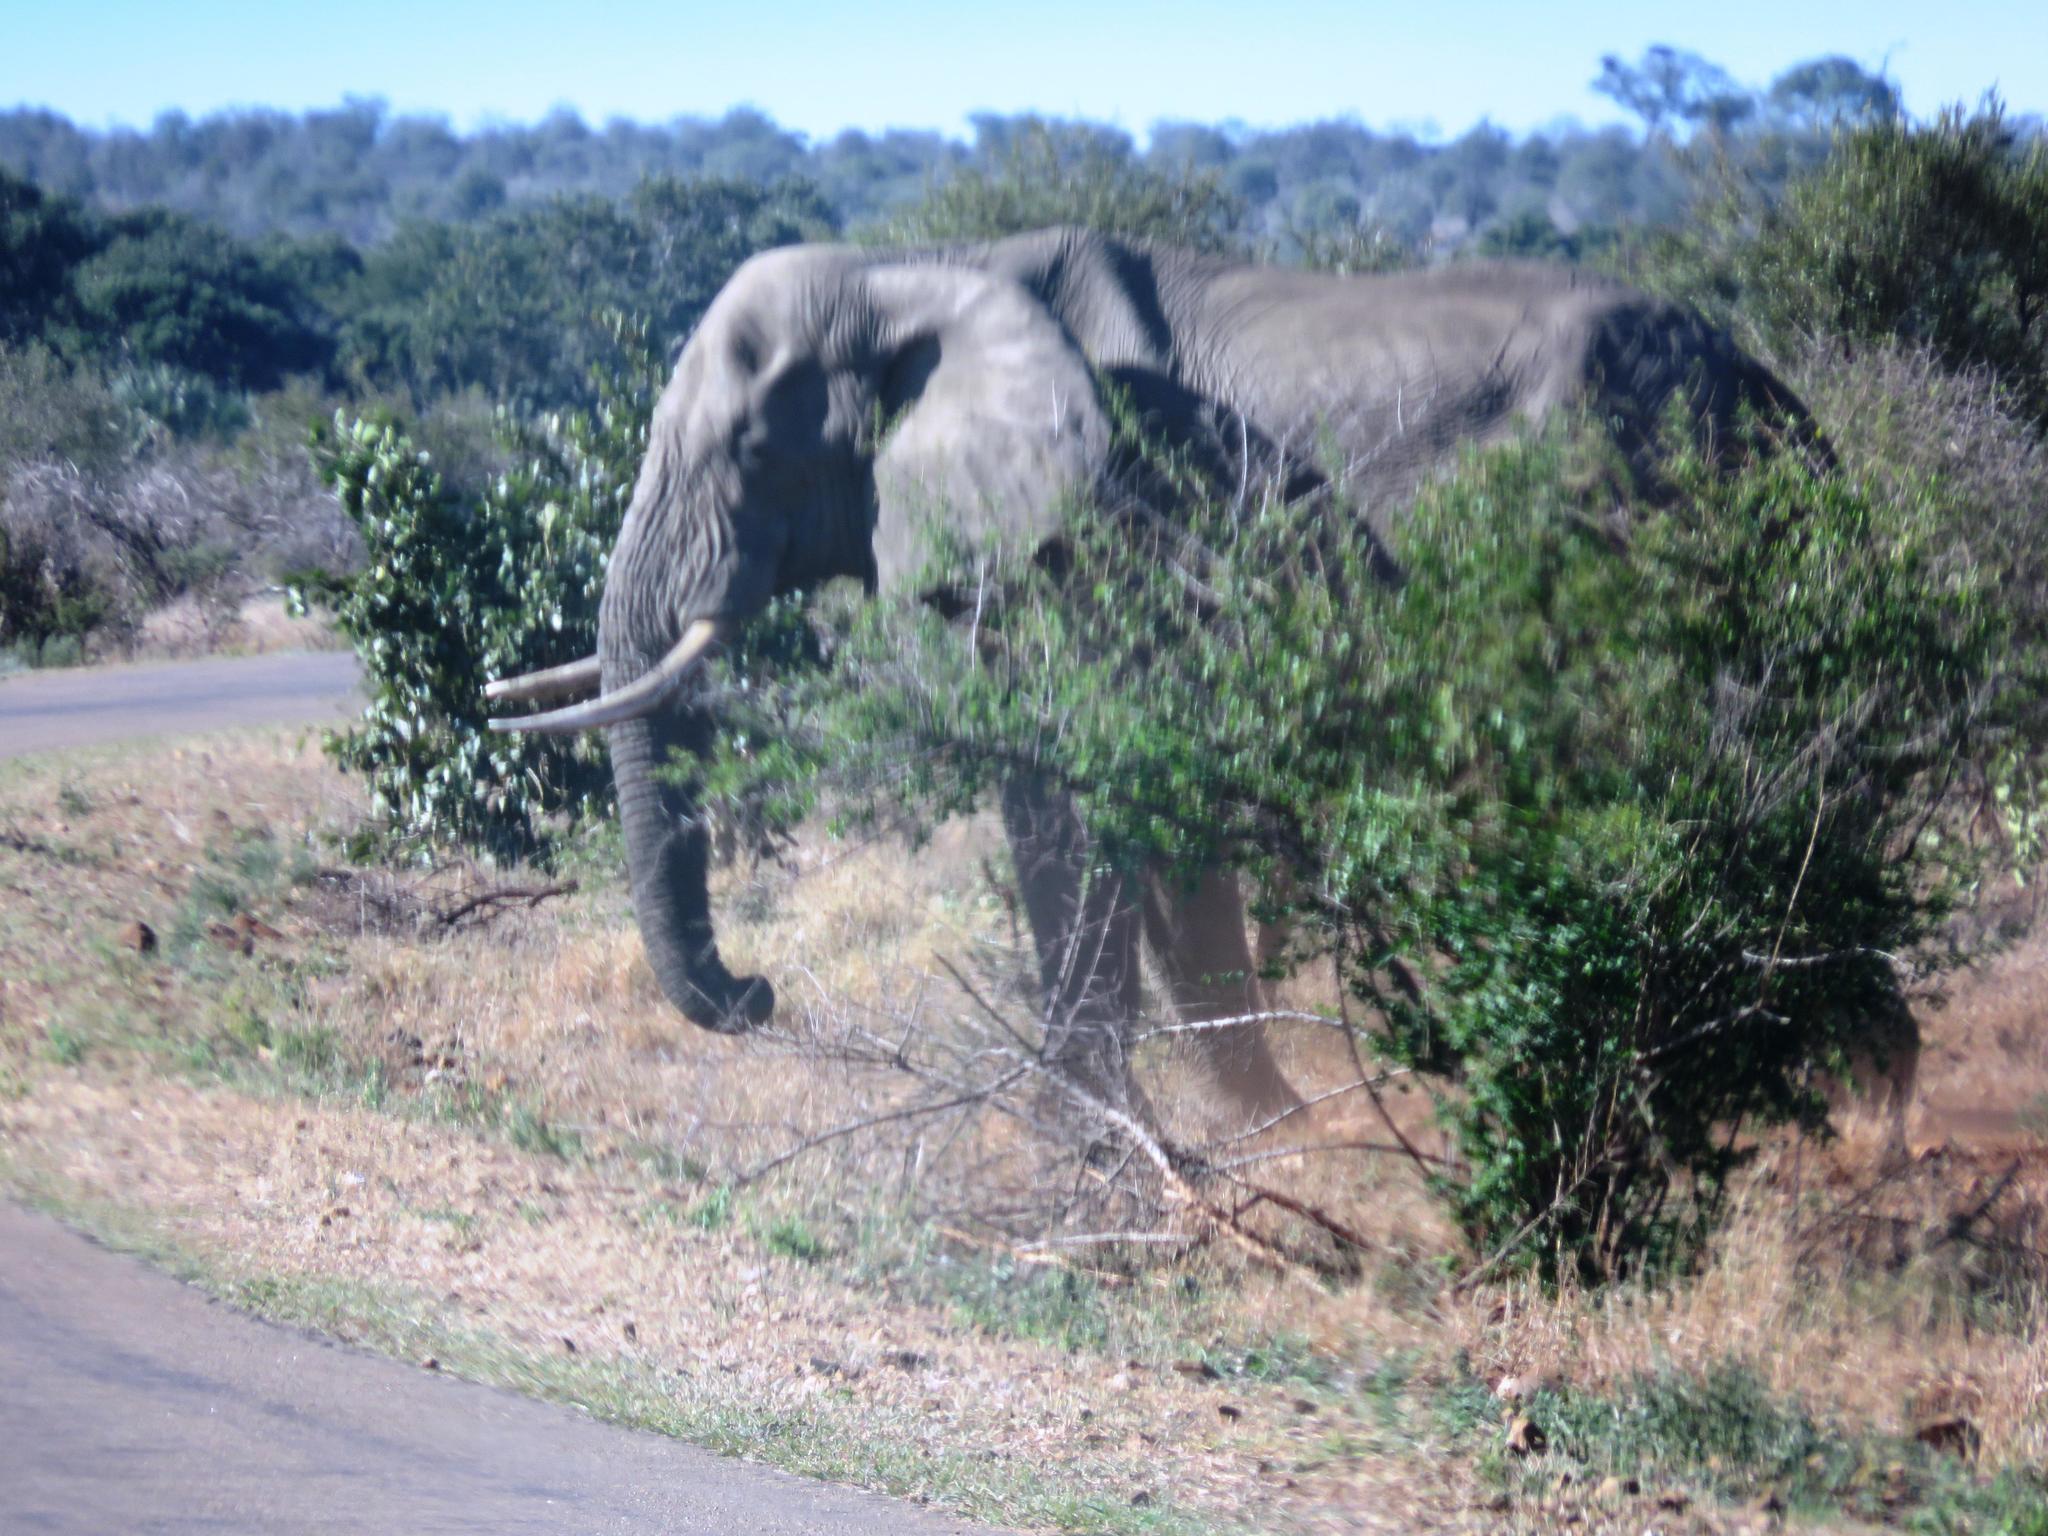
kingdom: Animalia
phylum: Chordata
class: Mammalia
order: Proboscidea
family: Elephantidae
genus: Loxodonta
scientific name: Loxodonta africana
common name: African elephant
